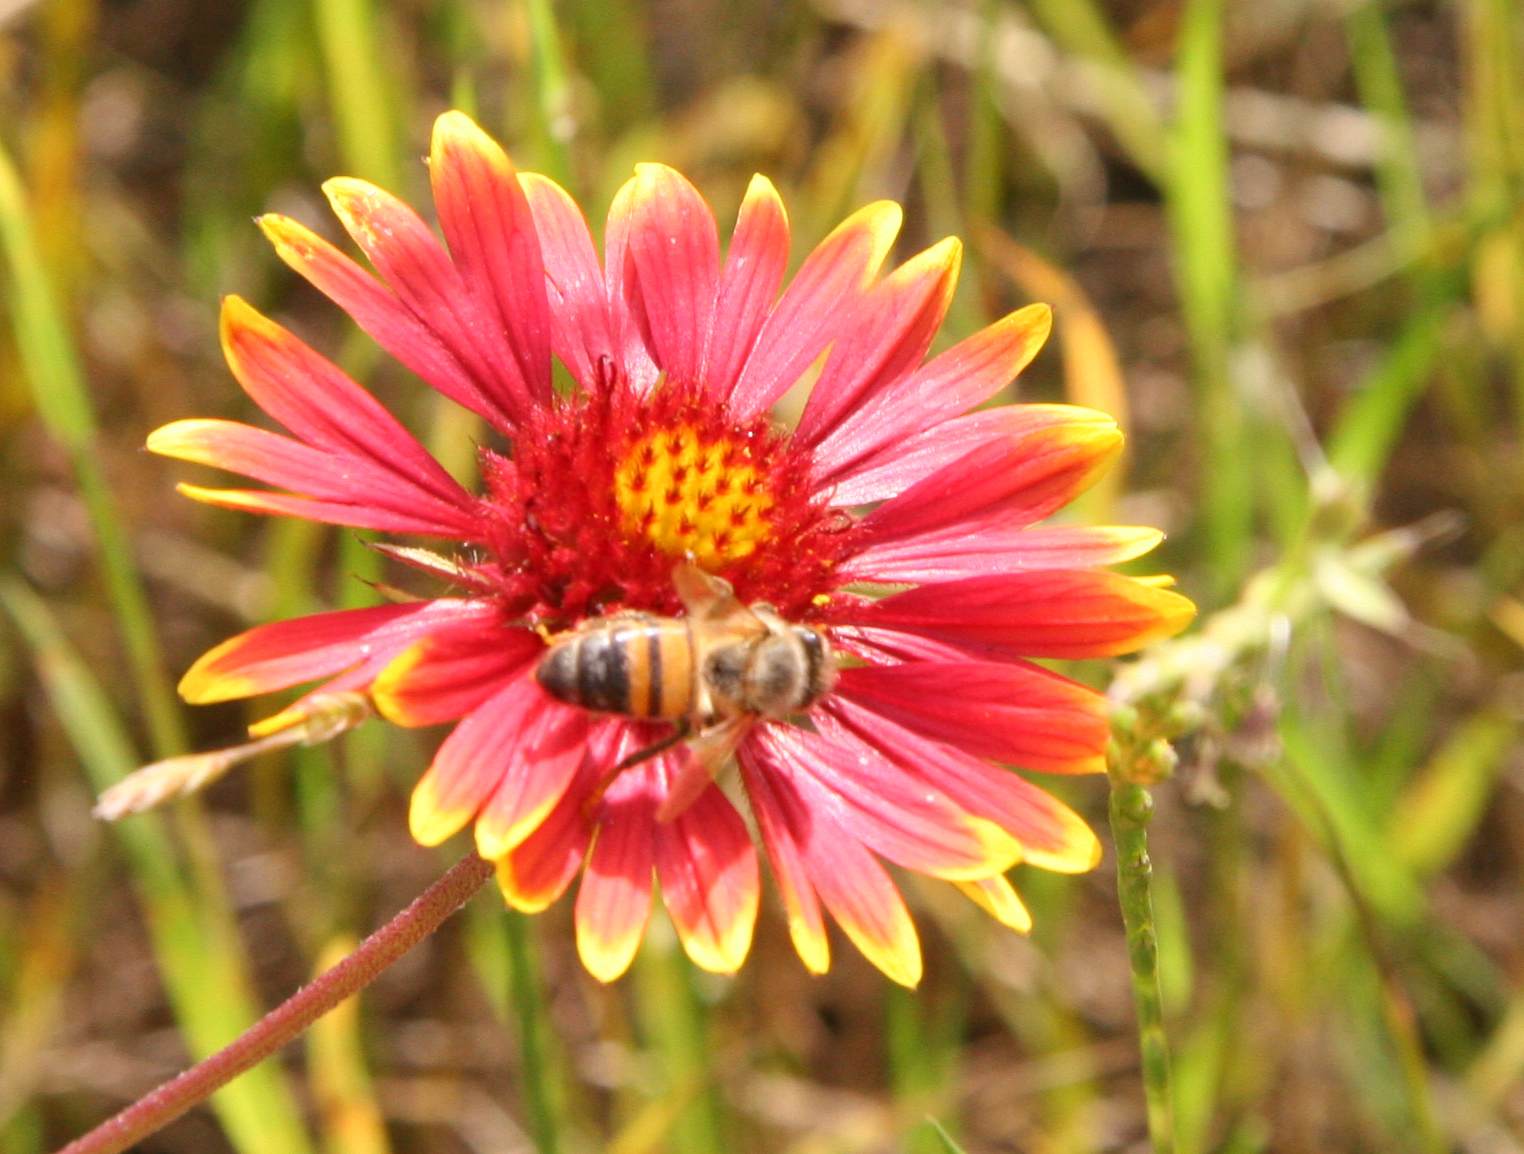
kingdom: Animalia
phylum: Arthropoda
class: Insecta
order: Hymenoptera
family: Apidae
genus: Apis
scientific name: Apis mellifera
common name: Honey bee
